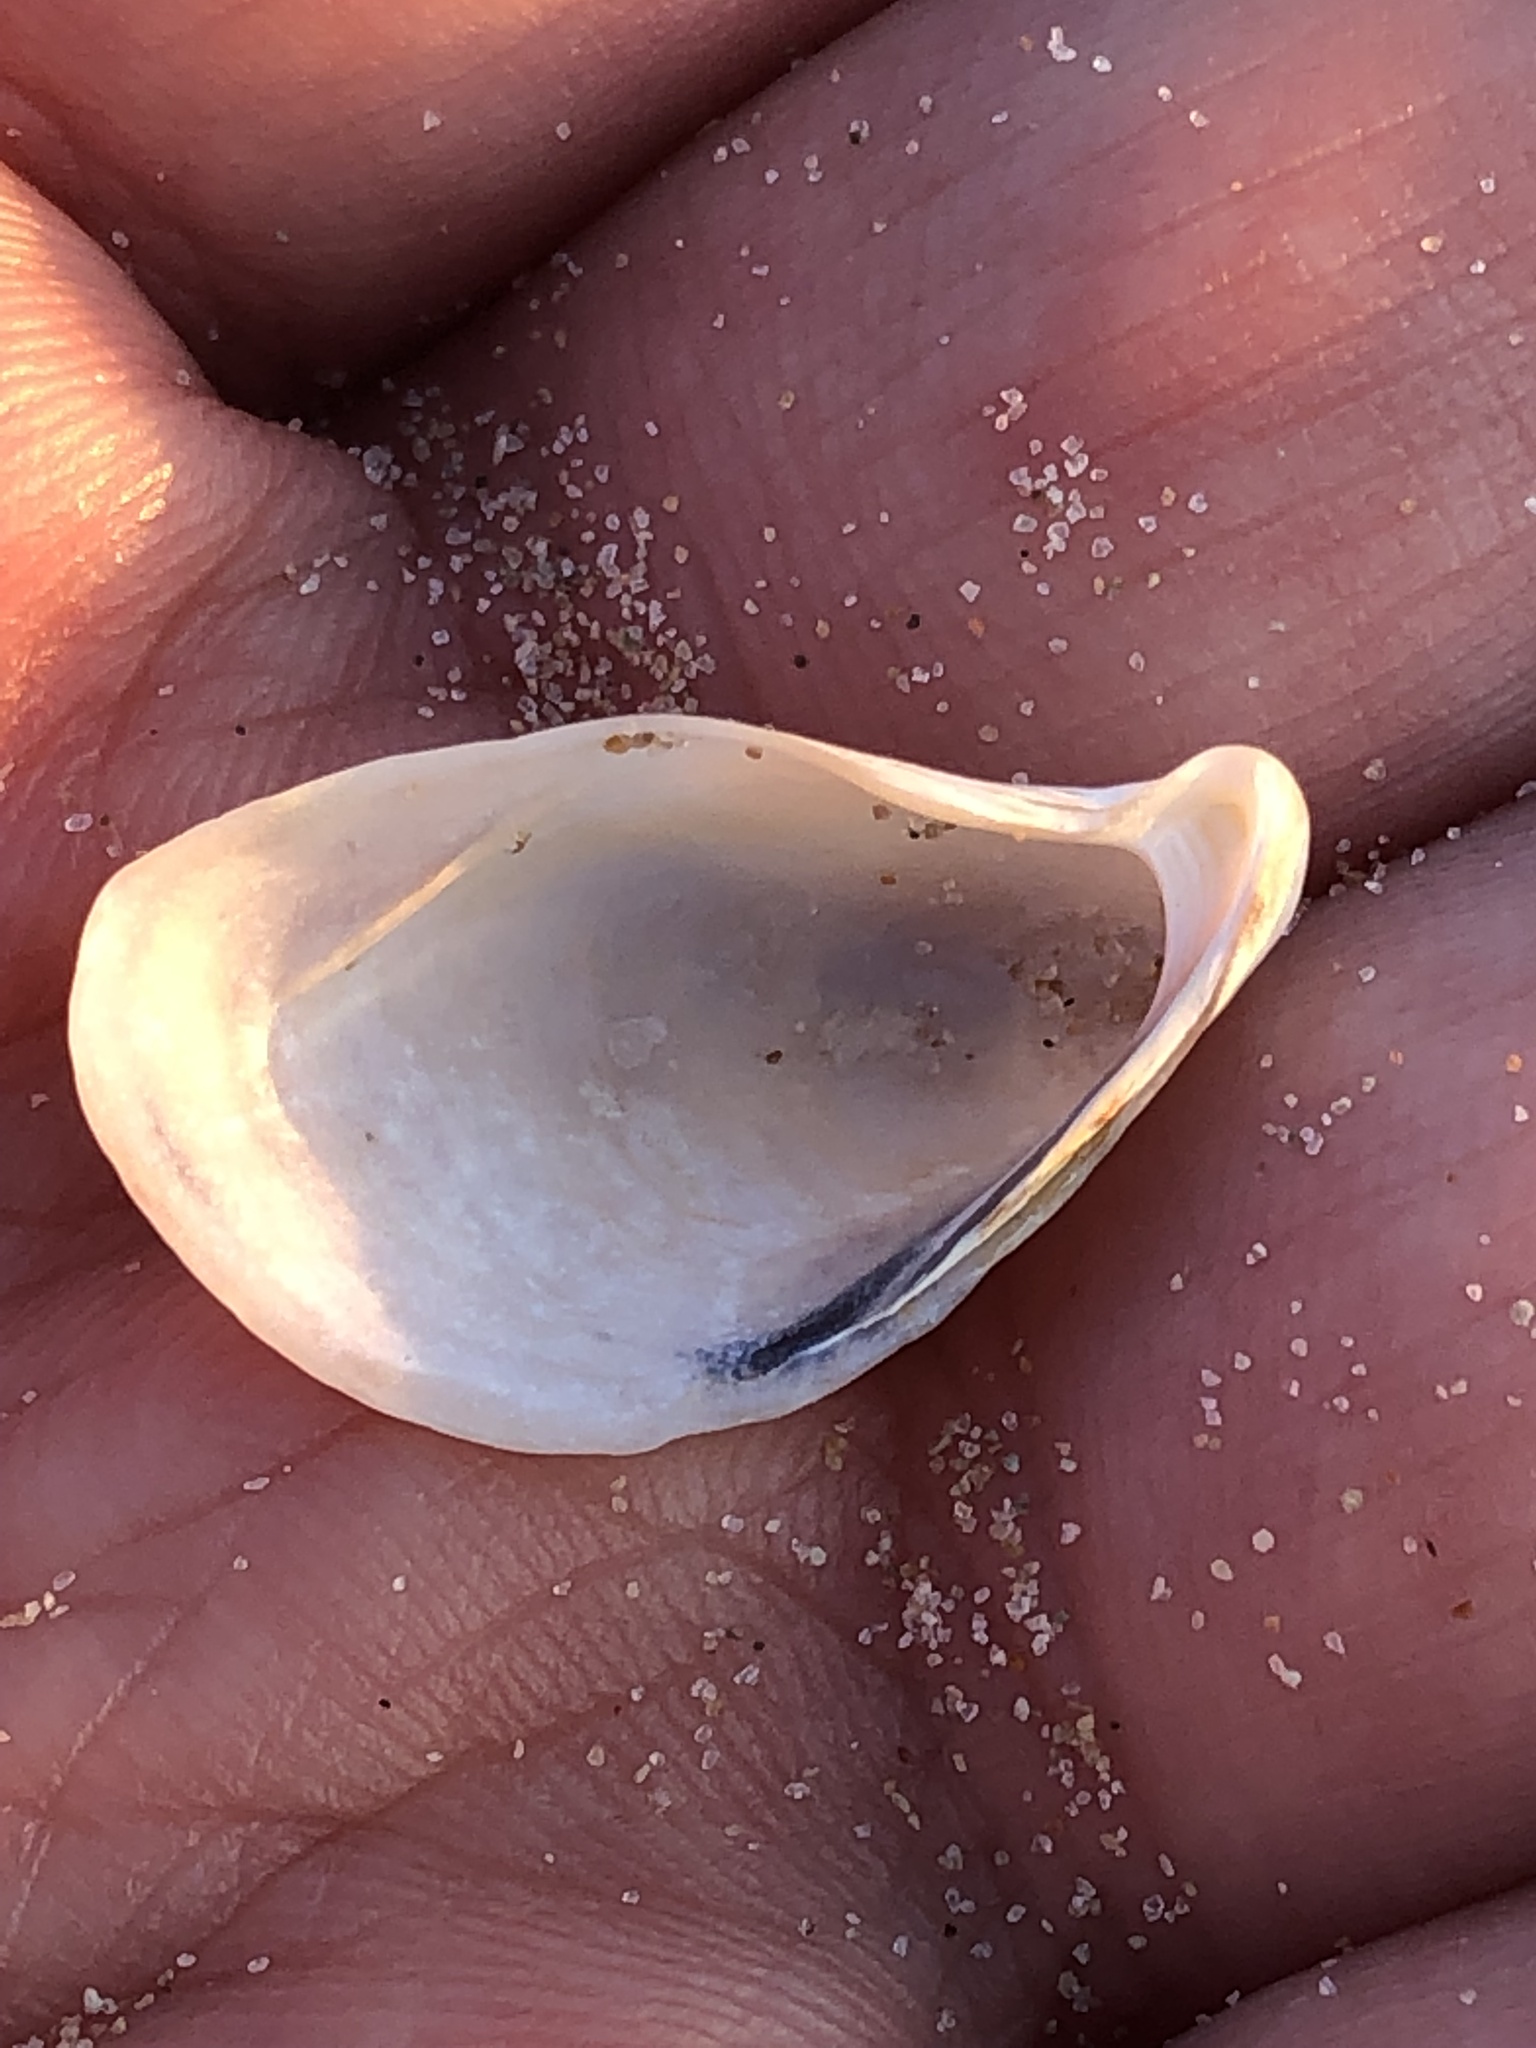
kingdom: Animalia
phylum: Mollusca
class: Bivalvia
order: Myida
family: Dreissenidae
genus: Dreissena
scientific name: Dreissena bugensis
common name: Quagga mussel
